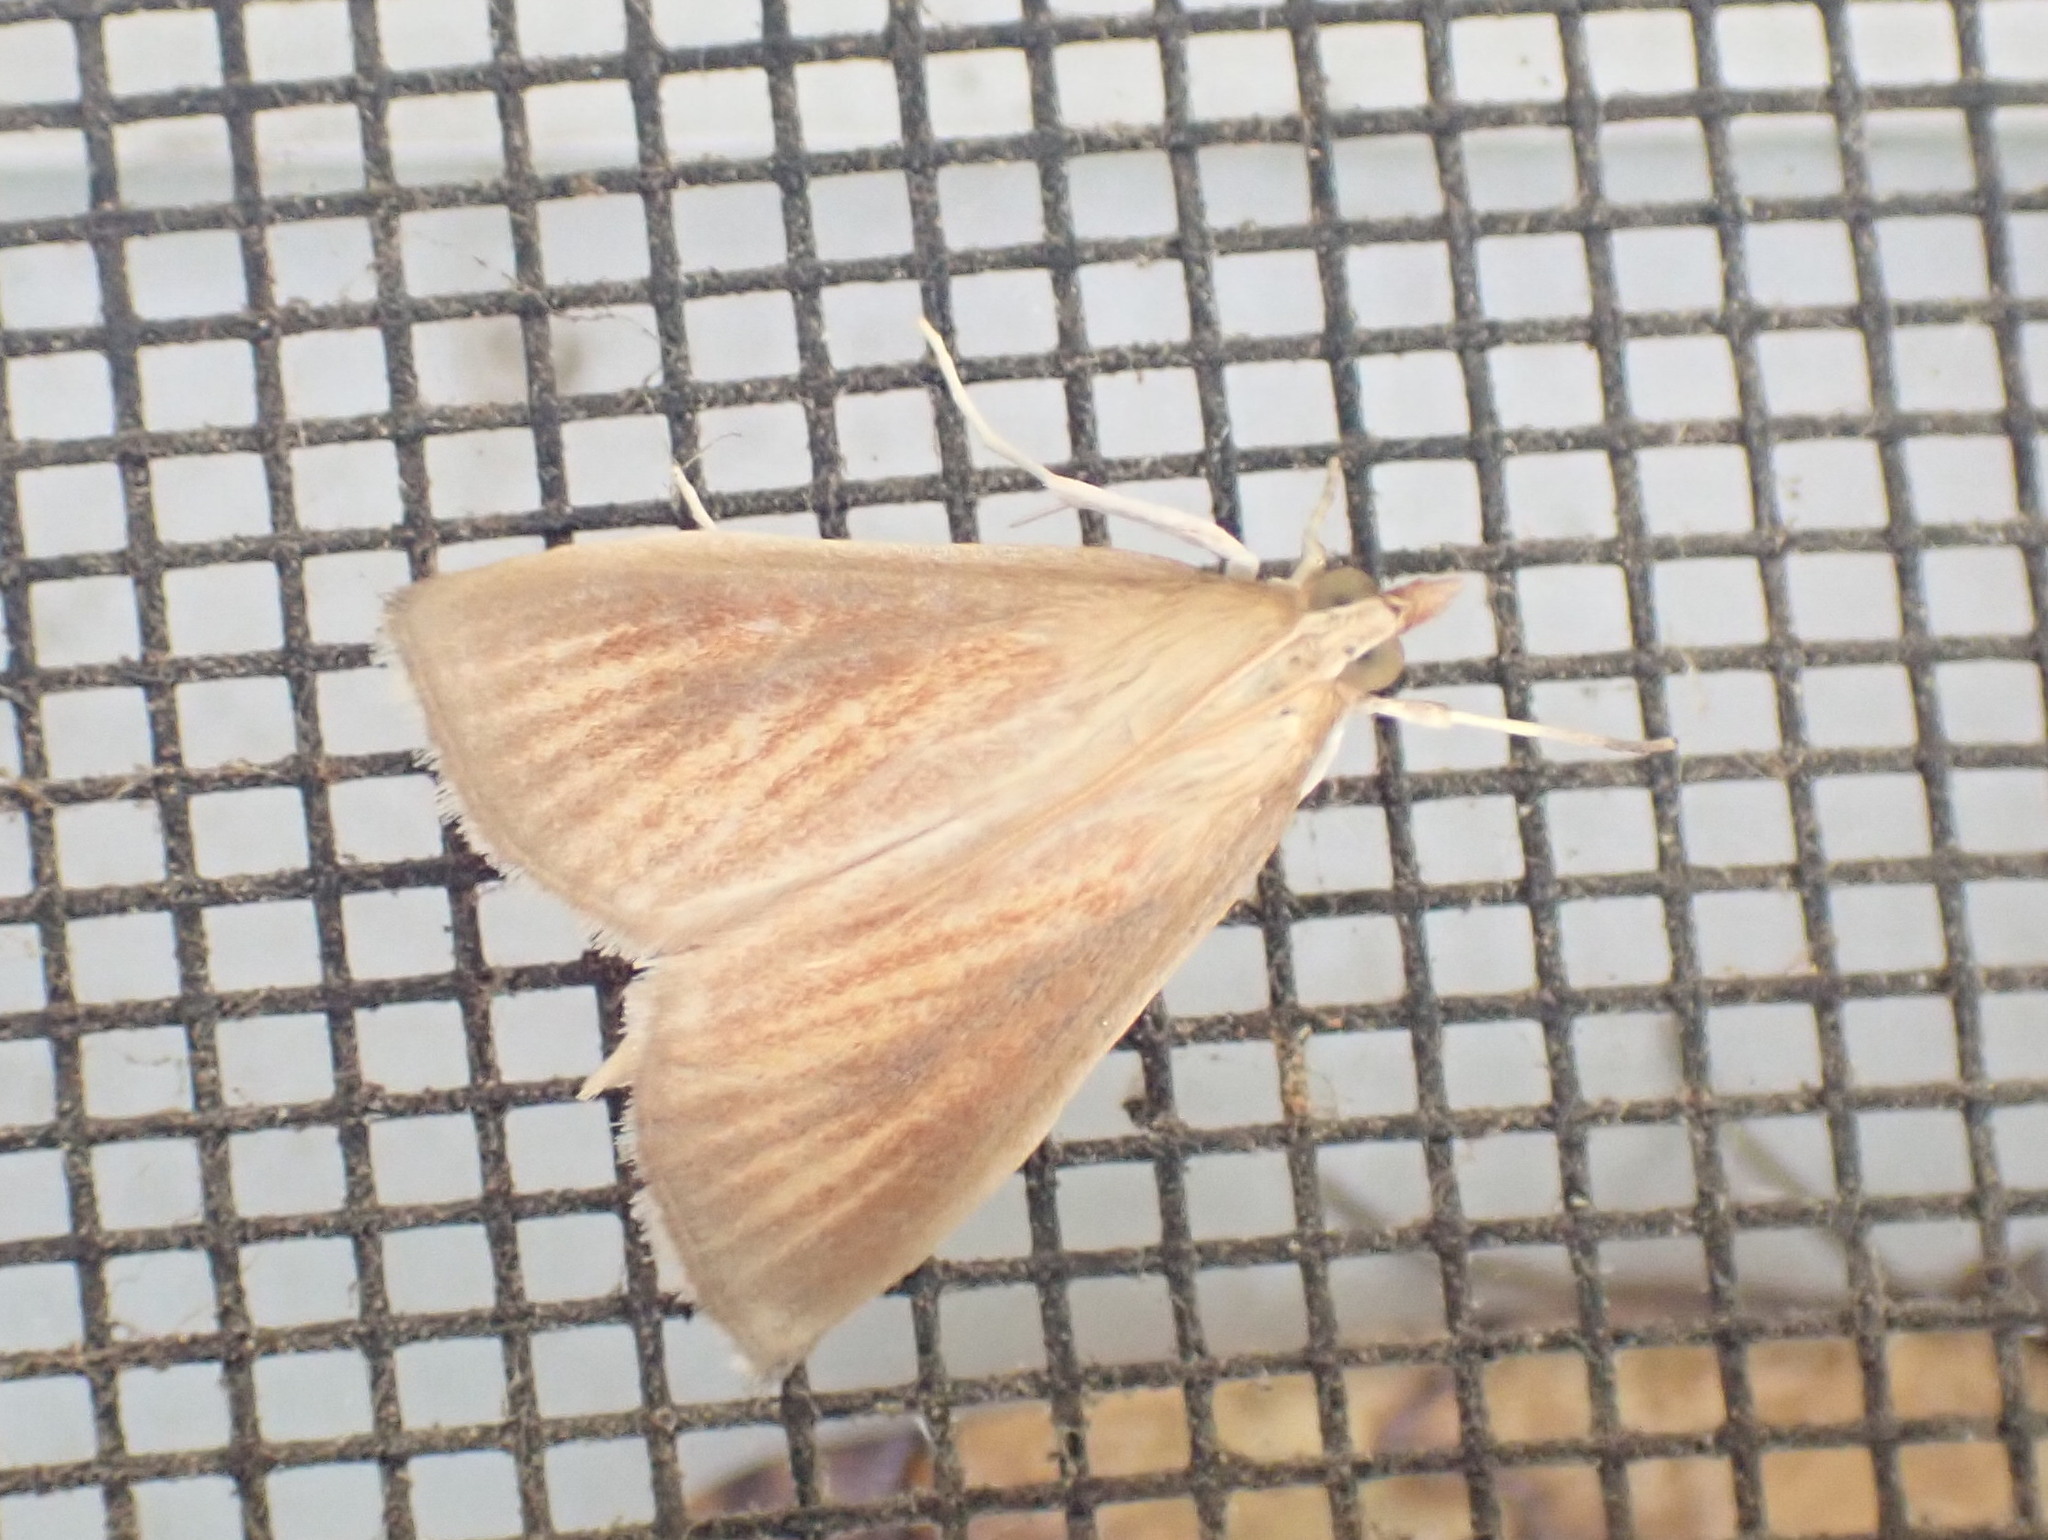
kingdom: Animalia
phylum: Arthropoda
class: Insecta
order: Lepidoptera
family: Crambidae
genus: Nascia
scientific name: Nascia acutellus
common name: Streaked orange moth
